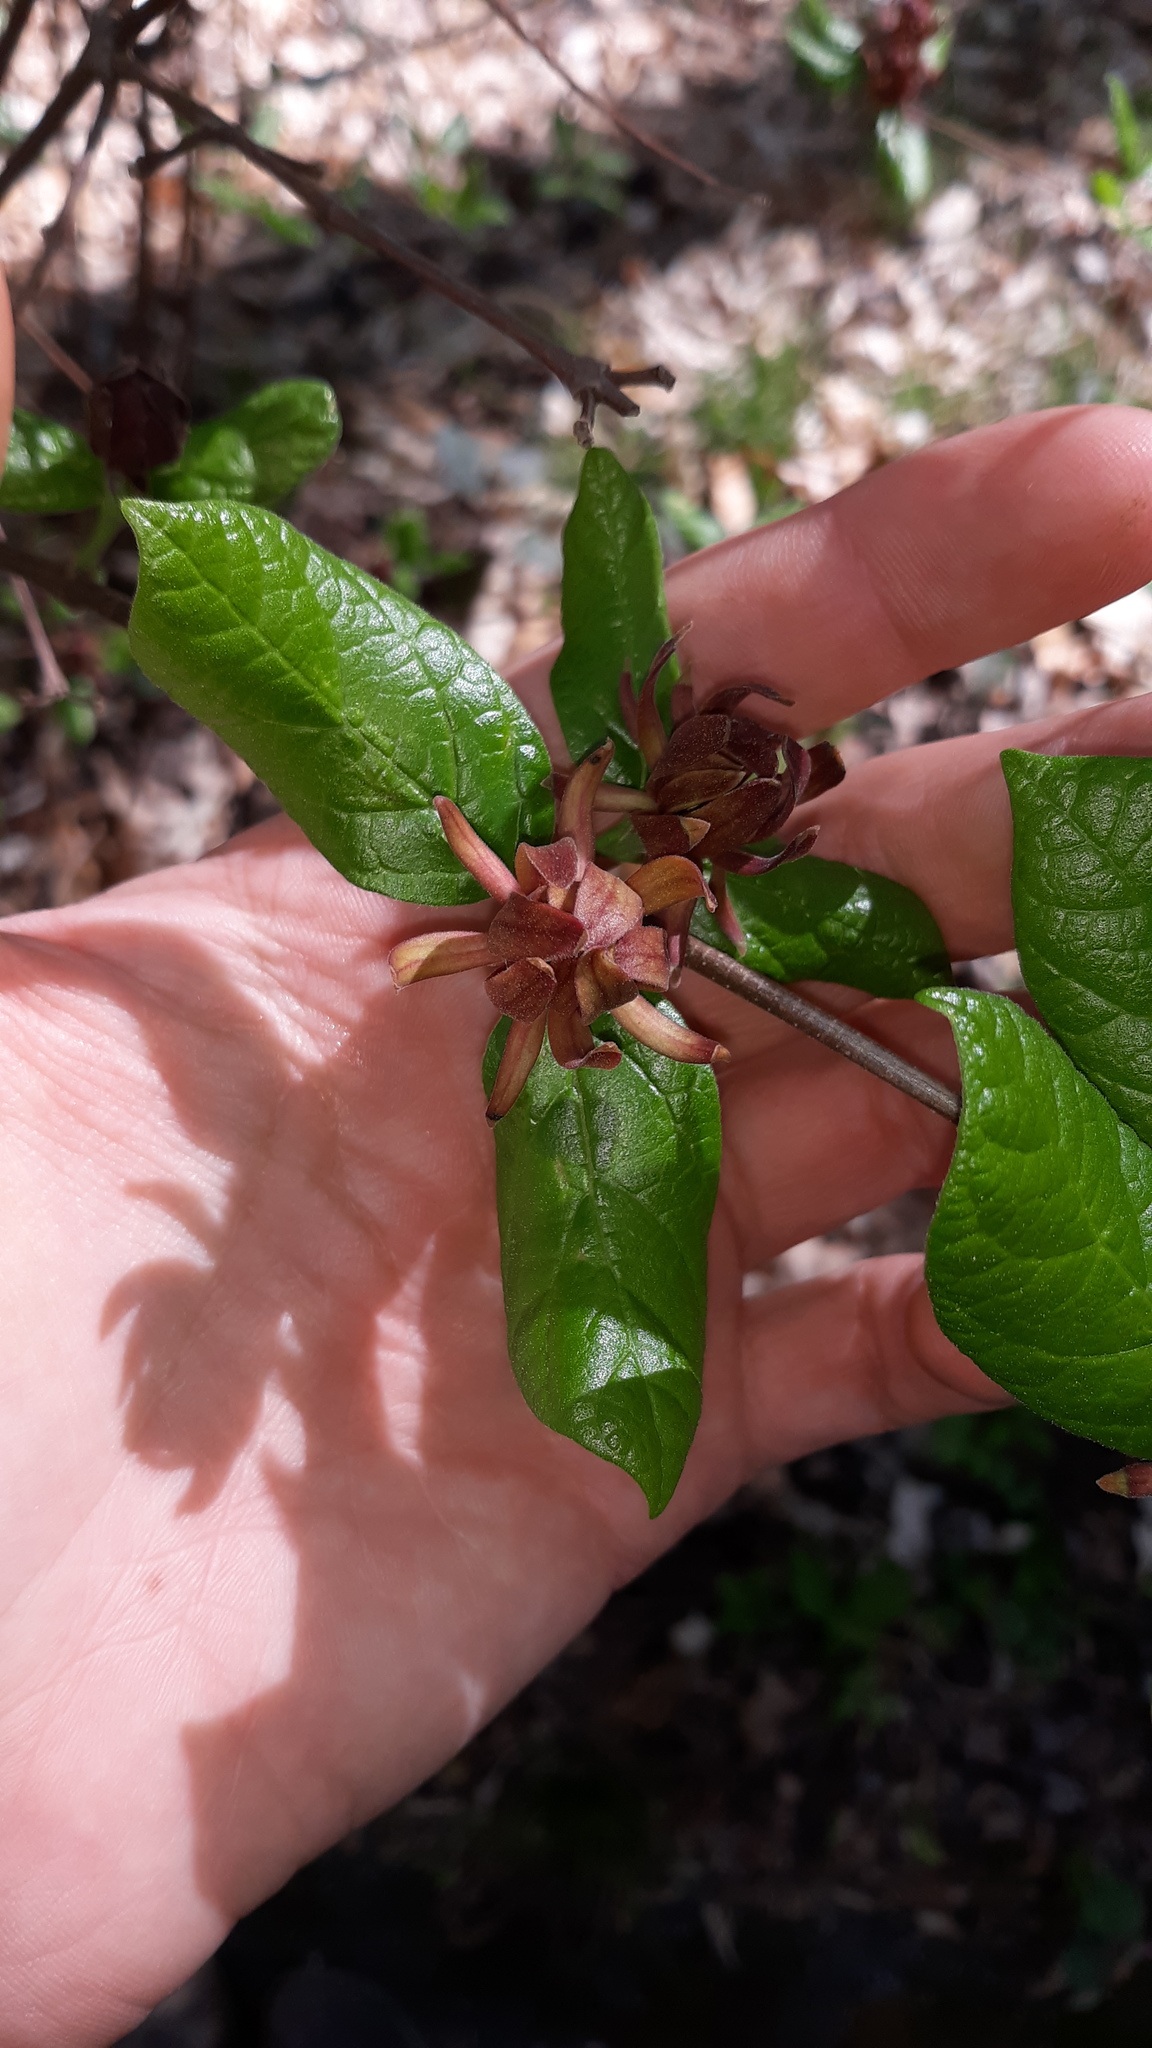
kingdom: Plantae
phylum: Tracheophyta
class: Magnoliopsida
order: Laurales
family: Calycanthaceae
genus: Calycanthus
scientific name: Calycanthus floridus
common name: Carolina-allspice
